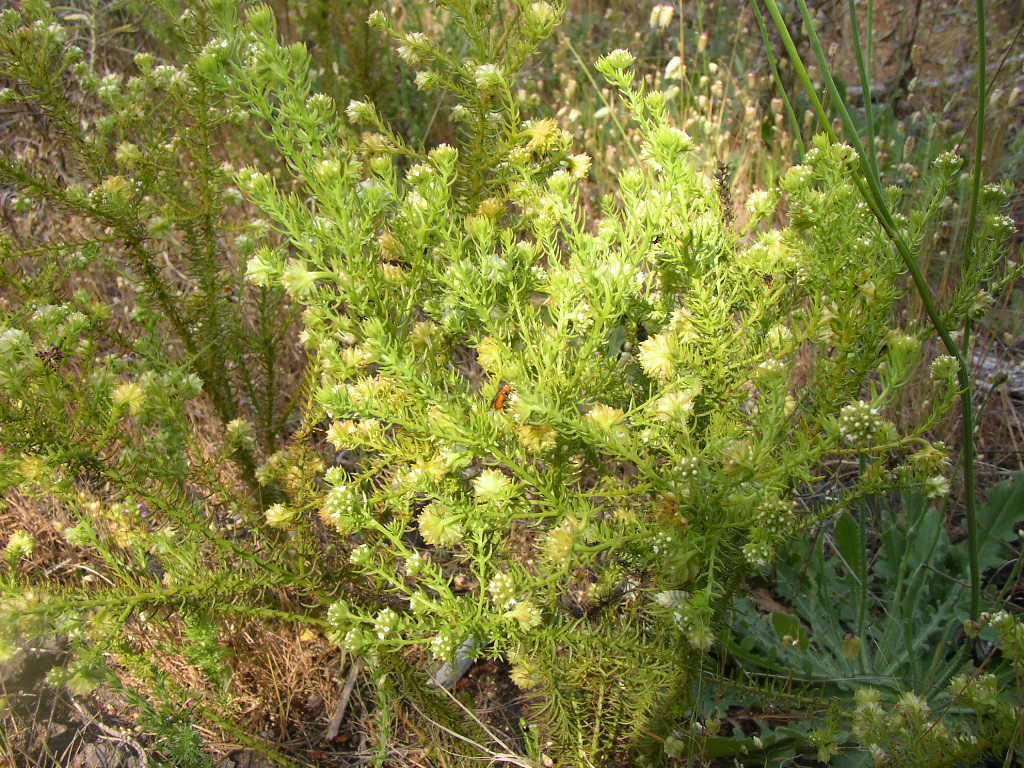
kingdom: Plantae
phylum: Tracheophyta
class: Magnoliopsida
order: Santalales
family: Thesiaceae
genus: Thesium
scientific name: Thesium scabrum
